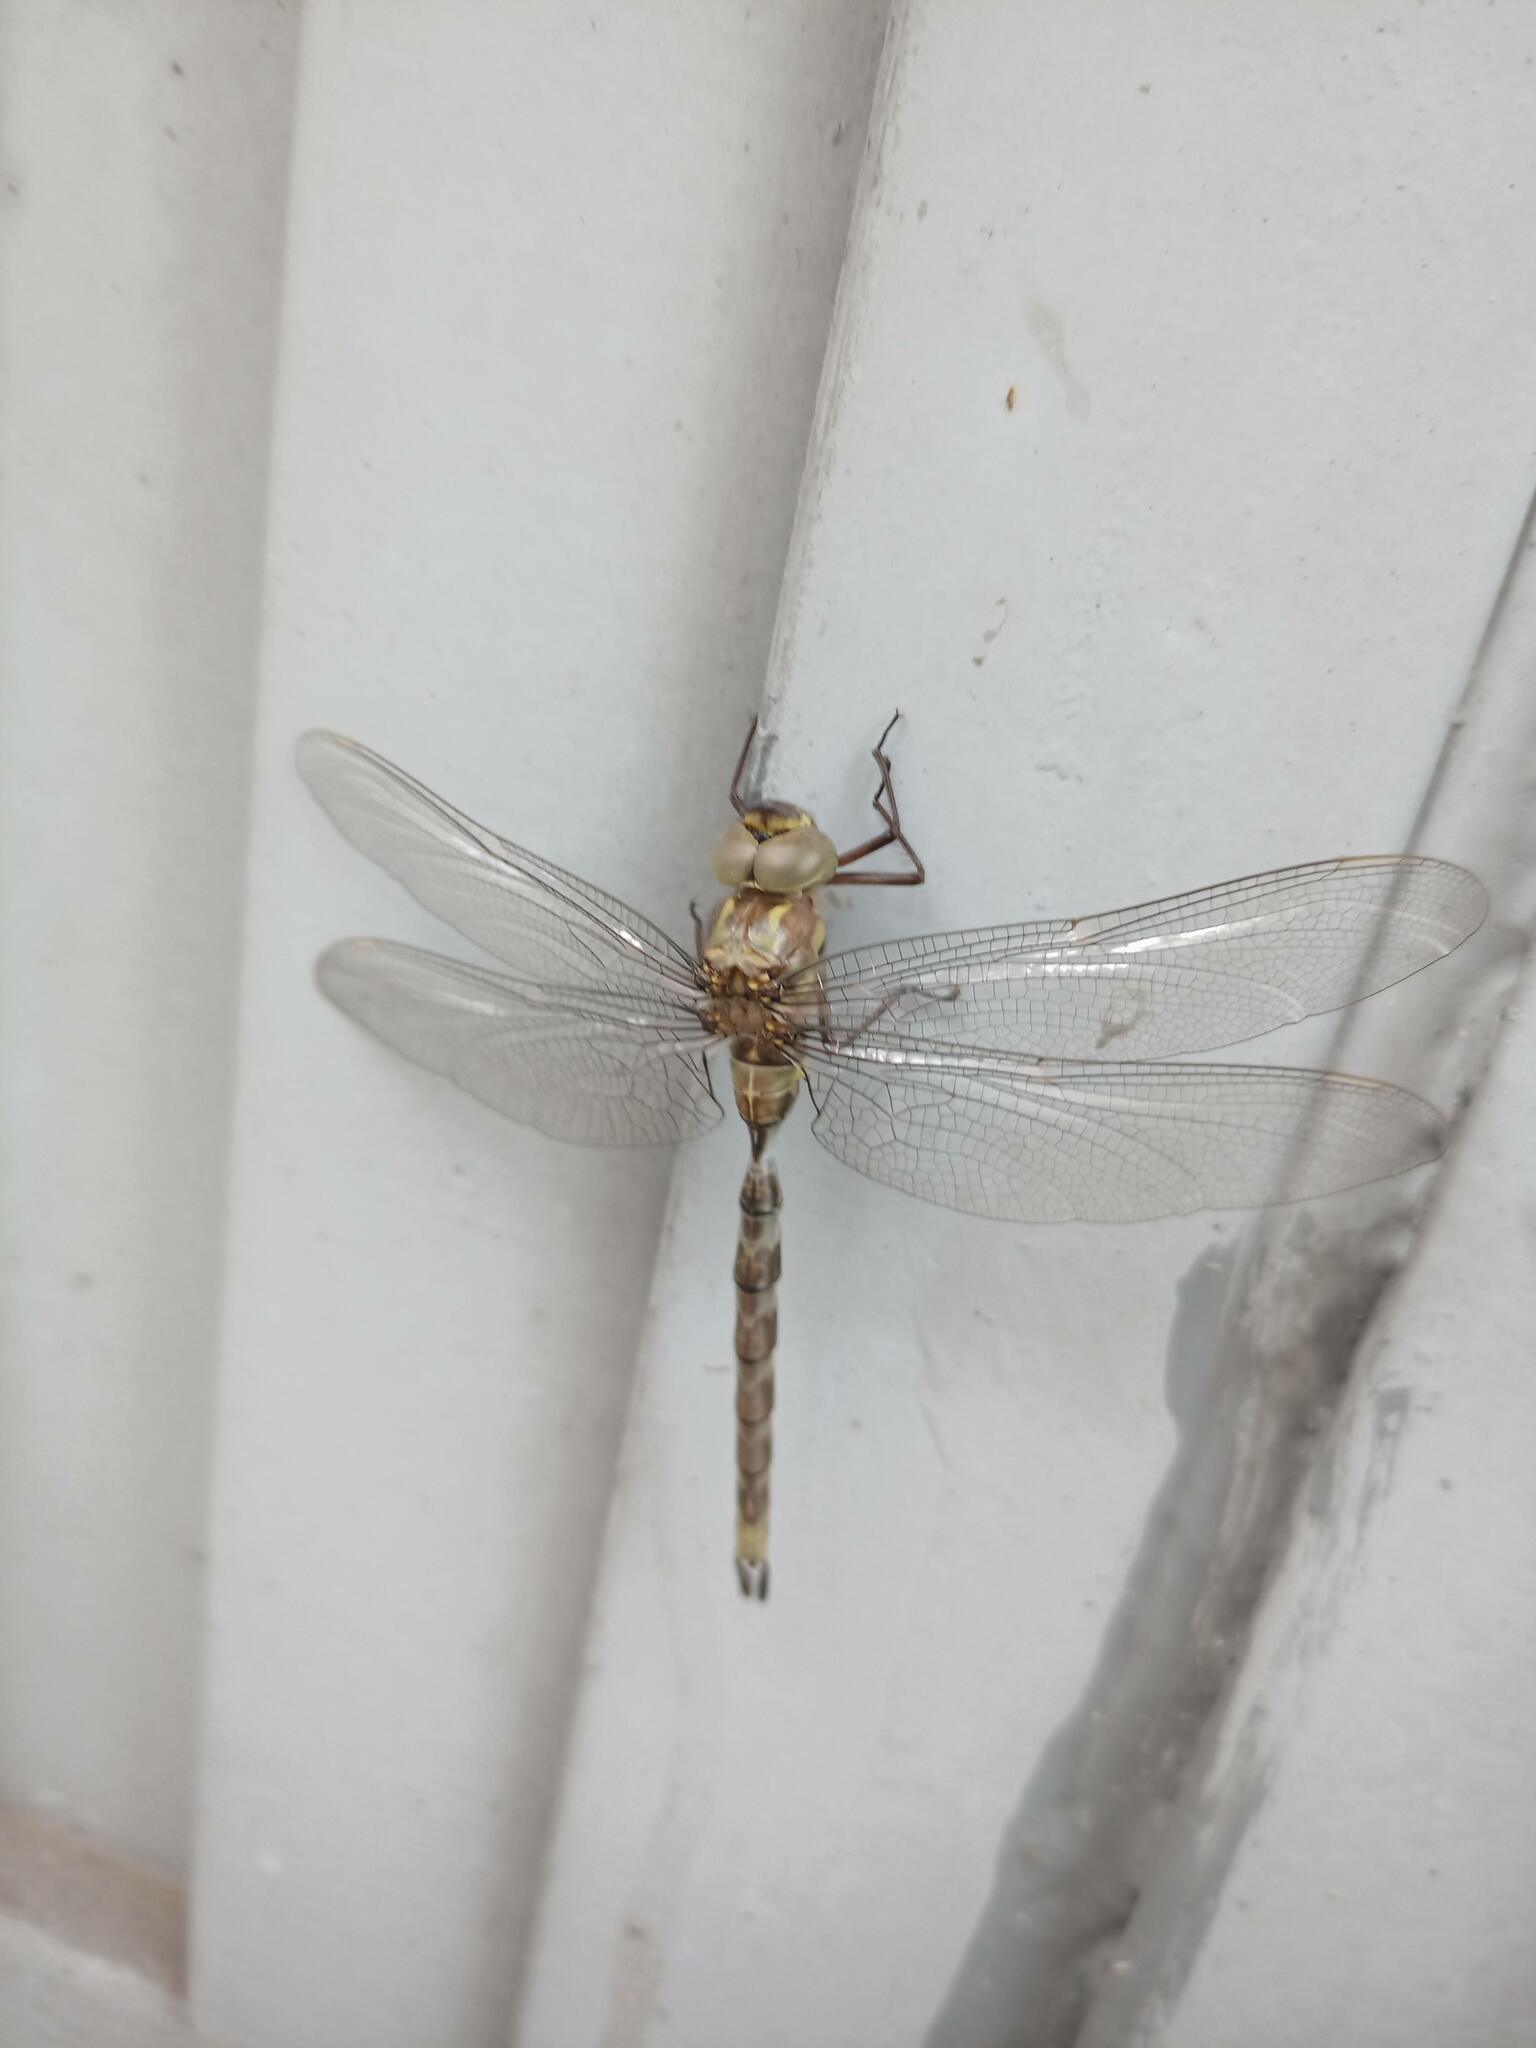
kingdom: Animalia
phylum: Arthropoda
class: Insecta
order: Odonata
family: Aeshnidae
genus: Boyeria
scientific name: Boyeria irene
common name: Western spectre
